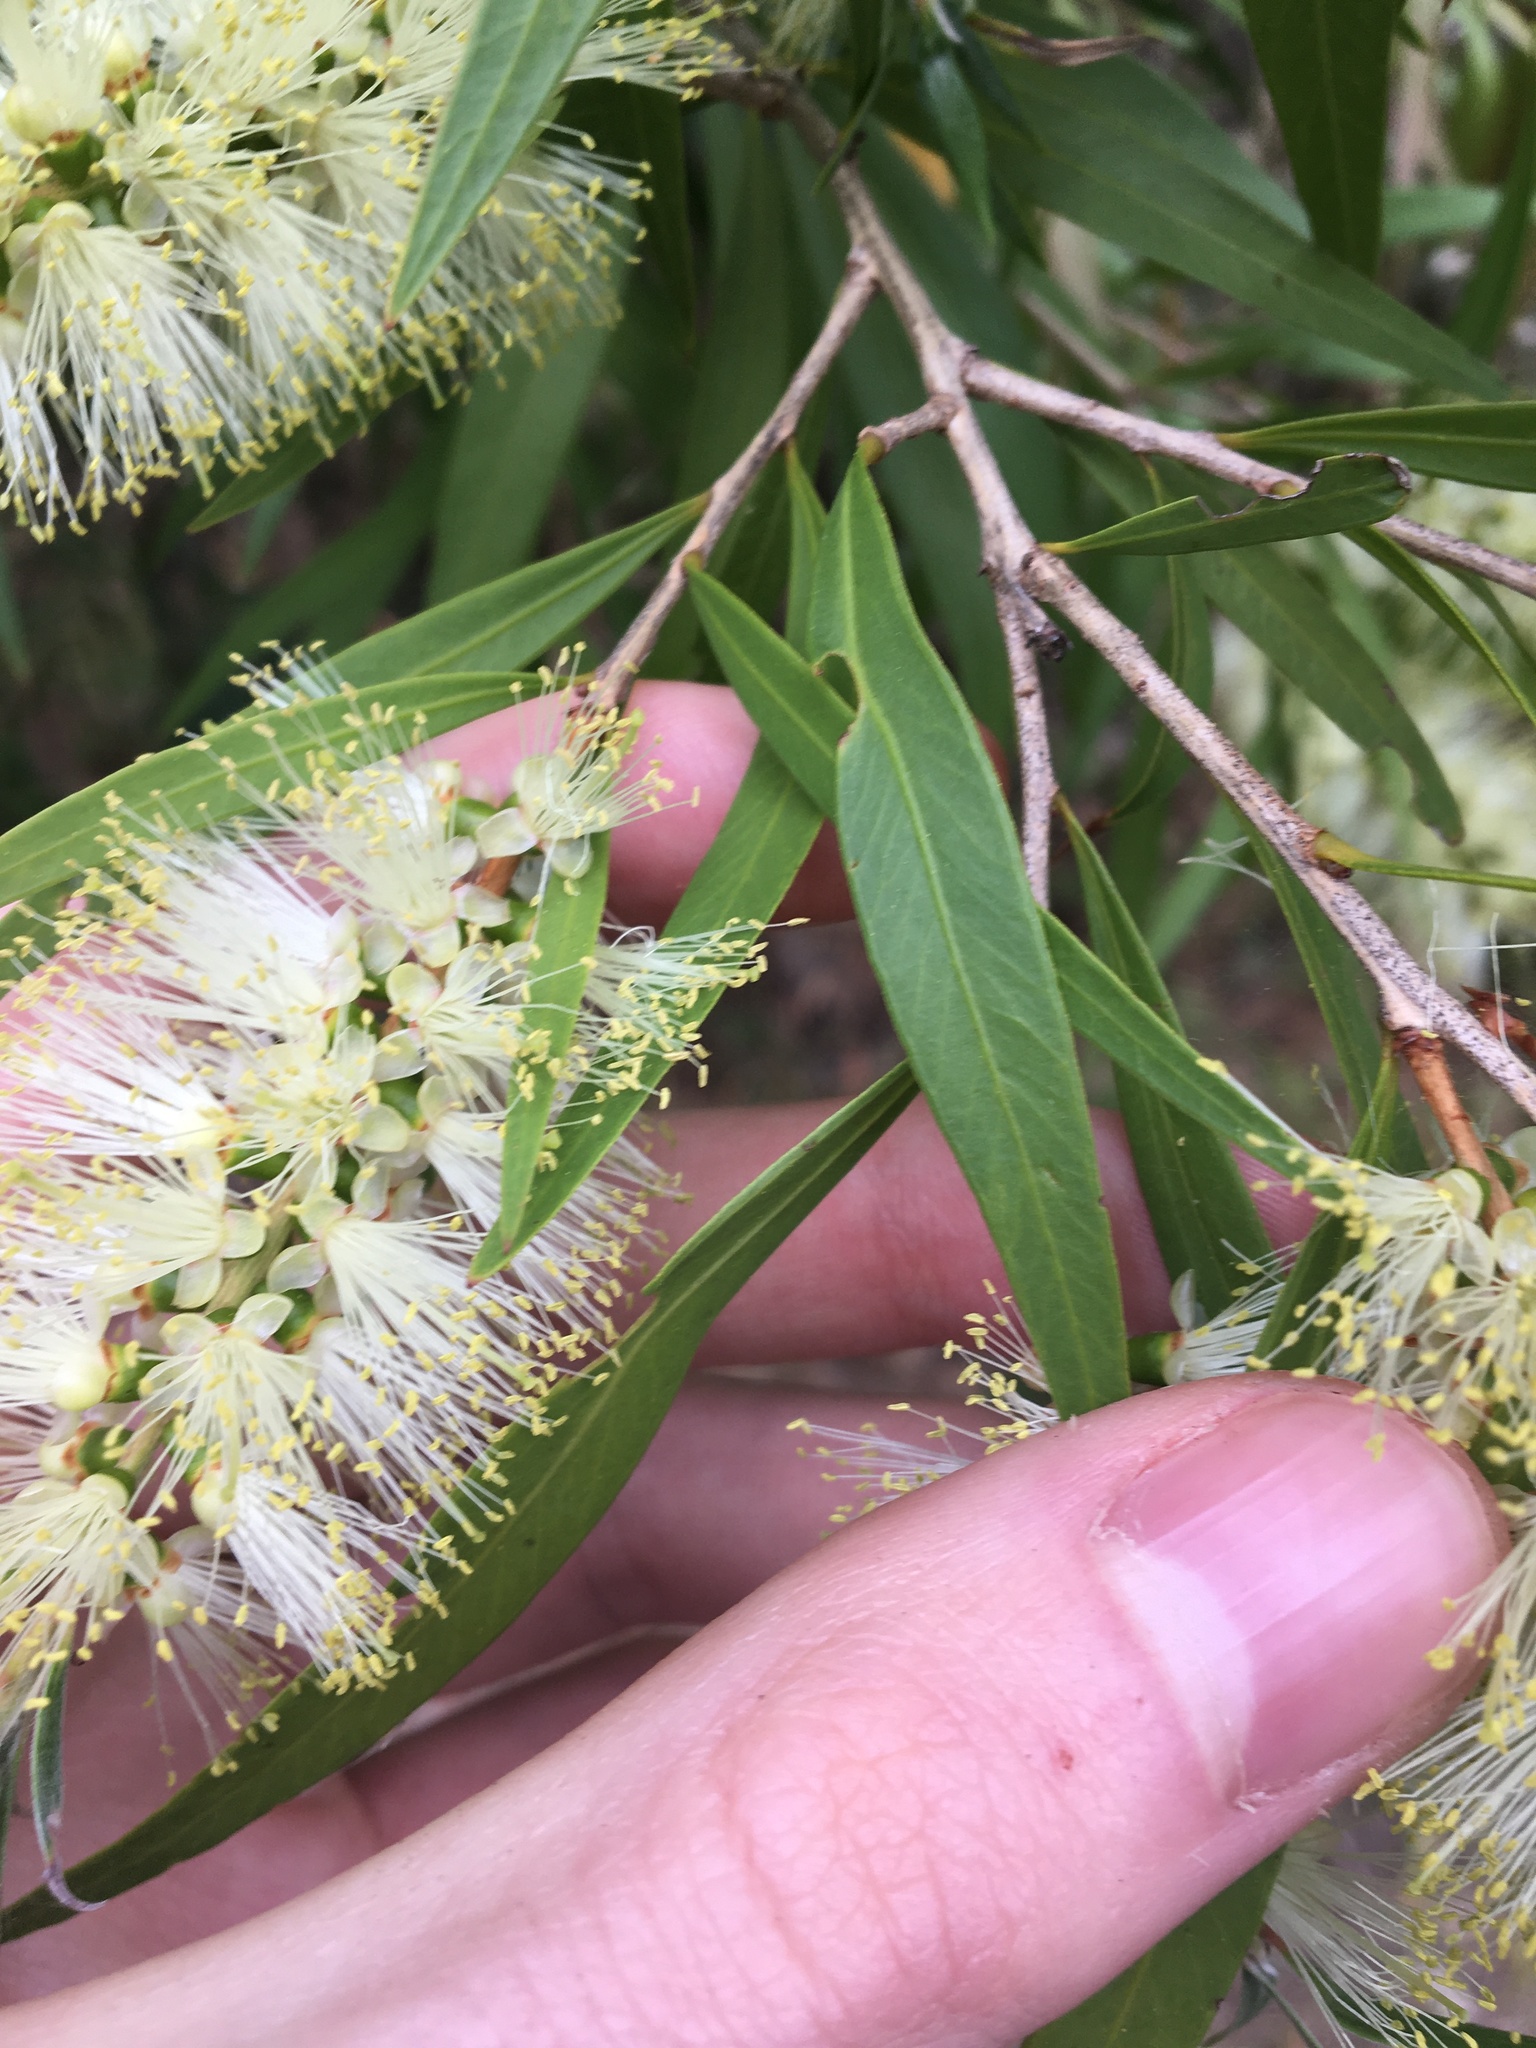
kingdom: Plantae
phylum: Tracheophyta
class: Magnoliopsida
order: Myrtales
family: Myrtaceae
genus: Callistemon
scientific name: Callistemon salignus
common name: White bottlebrush
